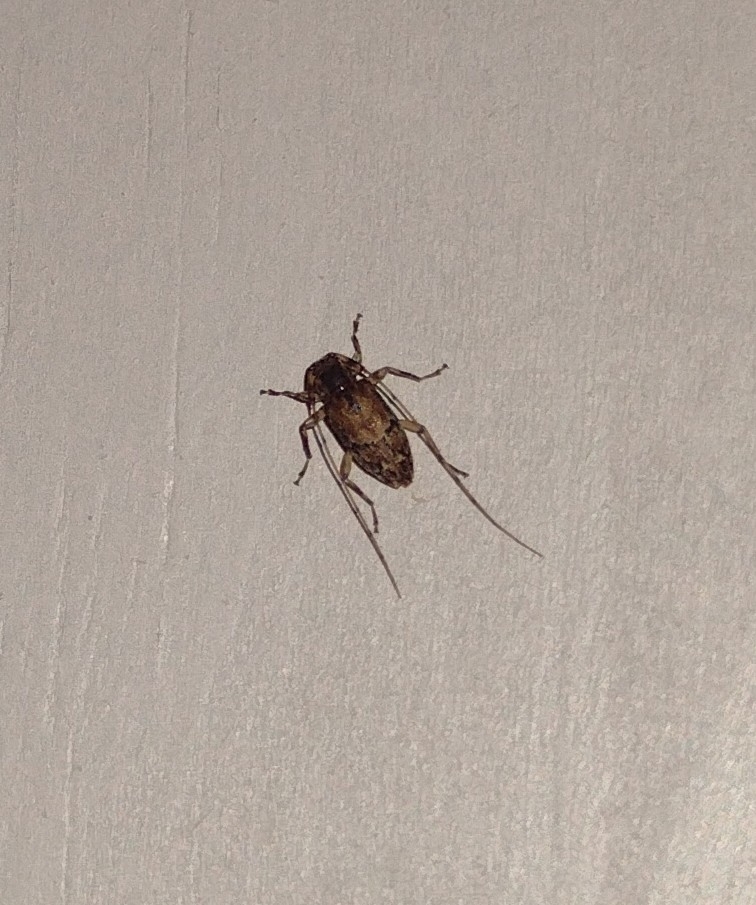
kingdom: Animalia
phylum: Arthropoda
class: Insecta
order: Coleoptera
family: Cerambycidae
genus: Urgleptes
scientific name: Urgleptes sandersoni
